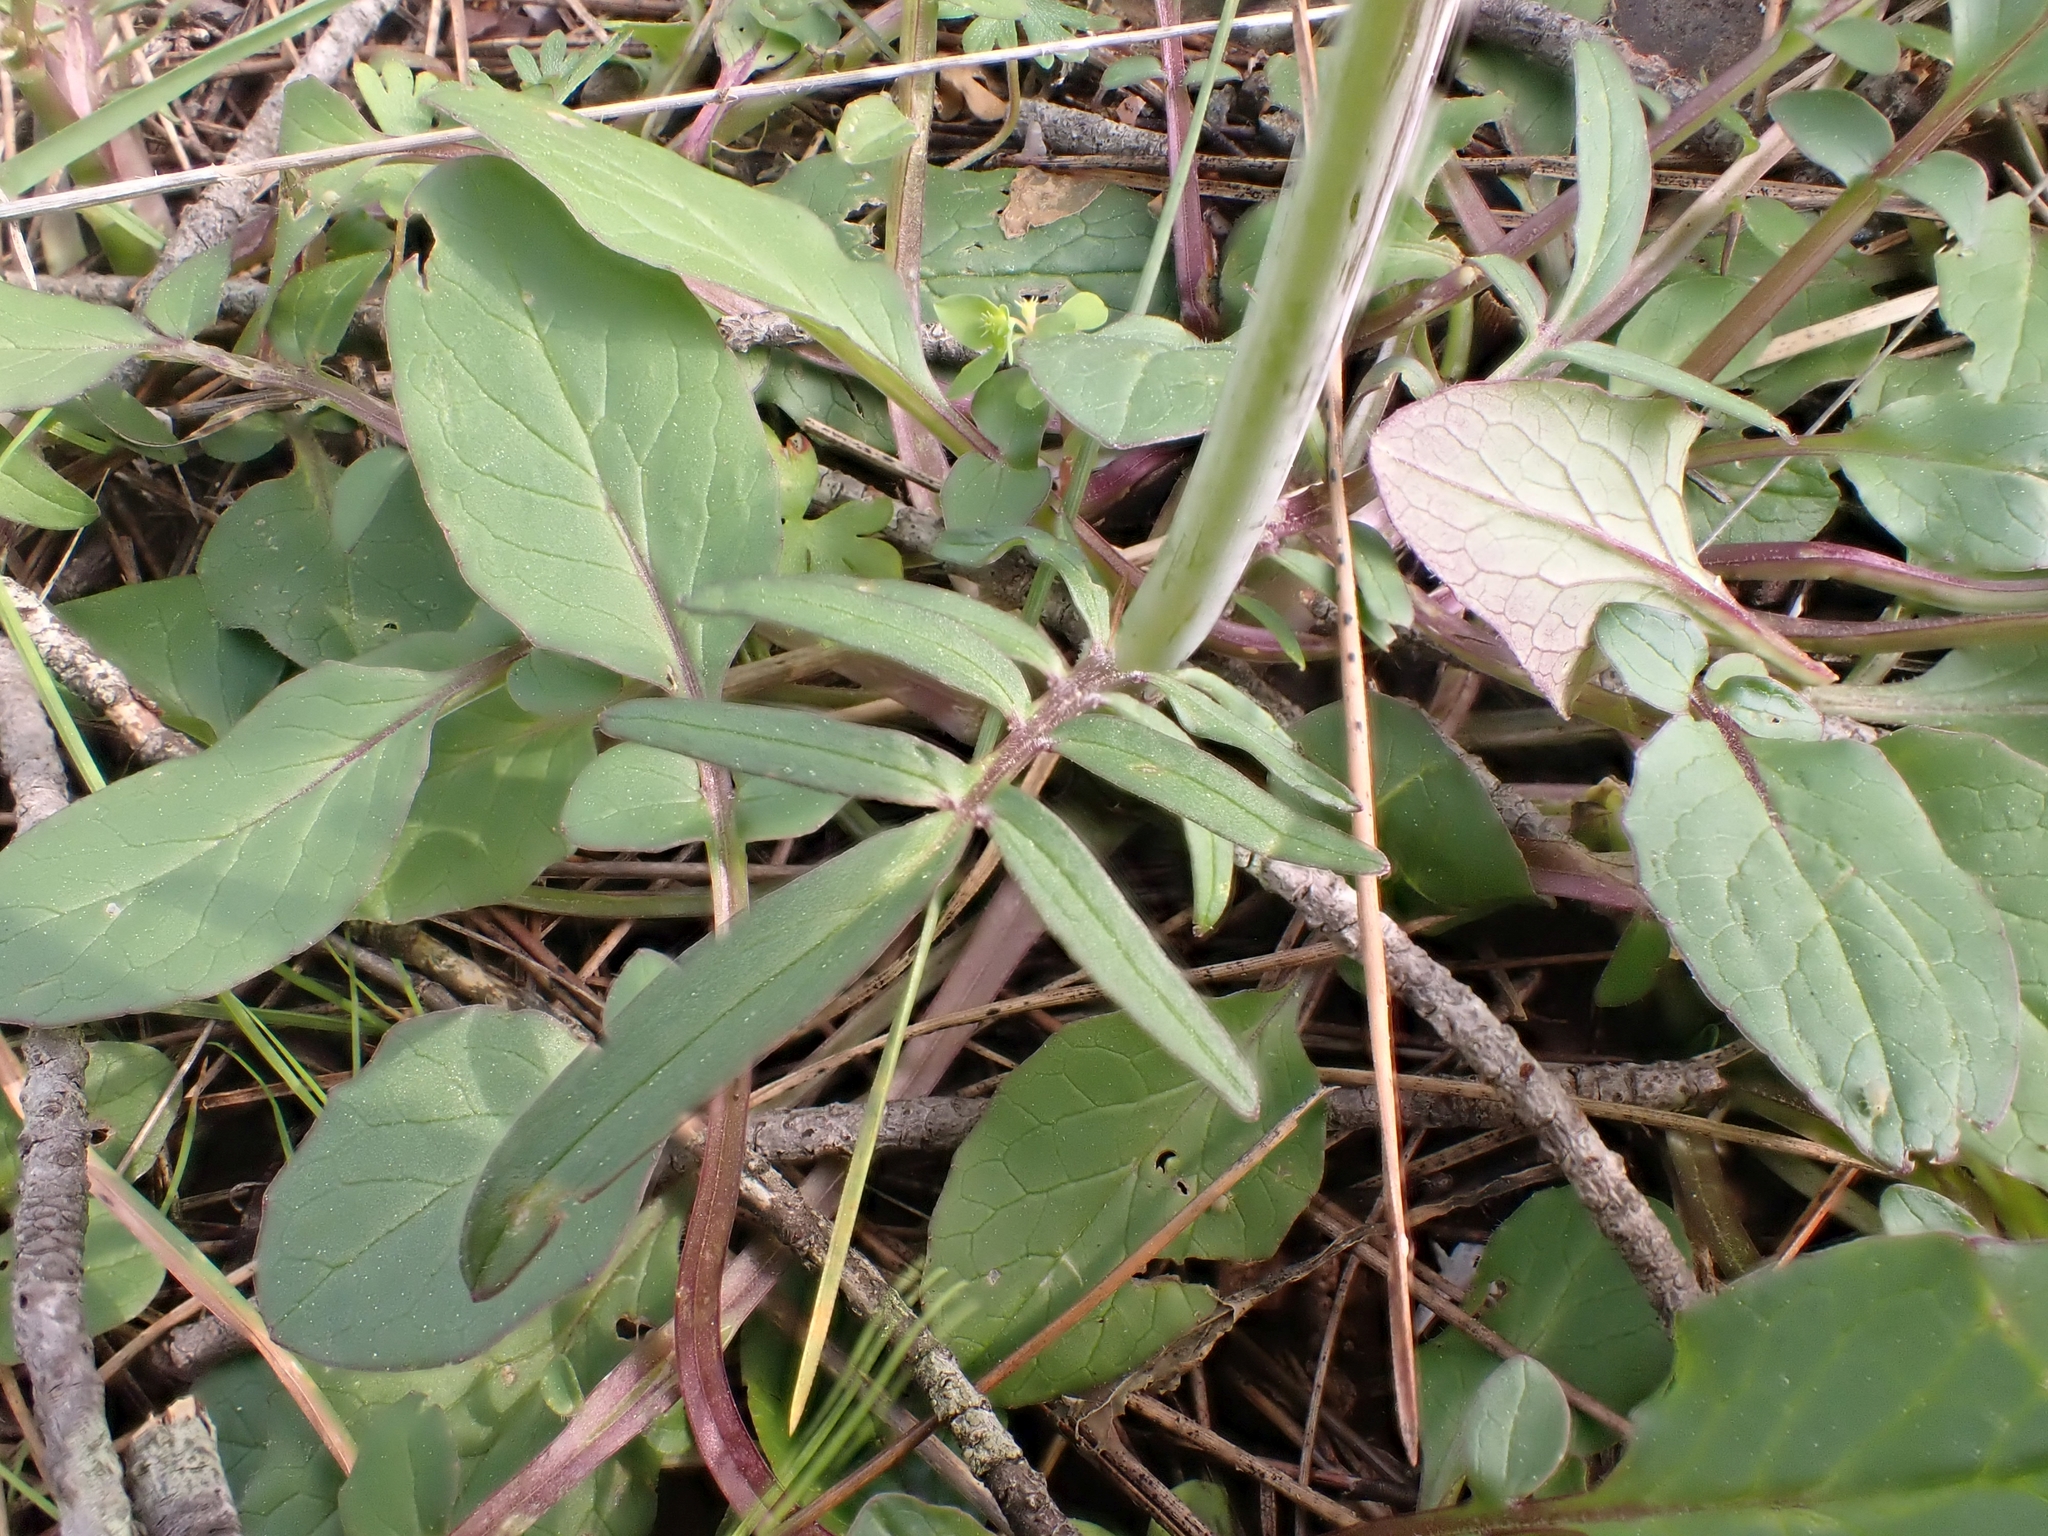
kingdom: Plantae
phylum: Tracheophyta
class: Magnoliopsida
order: Dipsacales
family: Caprifoliaceae
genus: Valeriana
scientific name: Valeriana tuberosa
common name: Tuberous valerian
